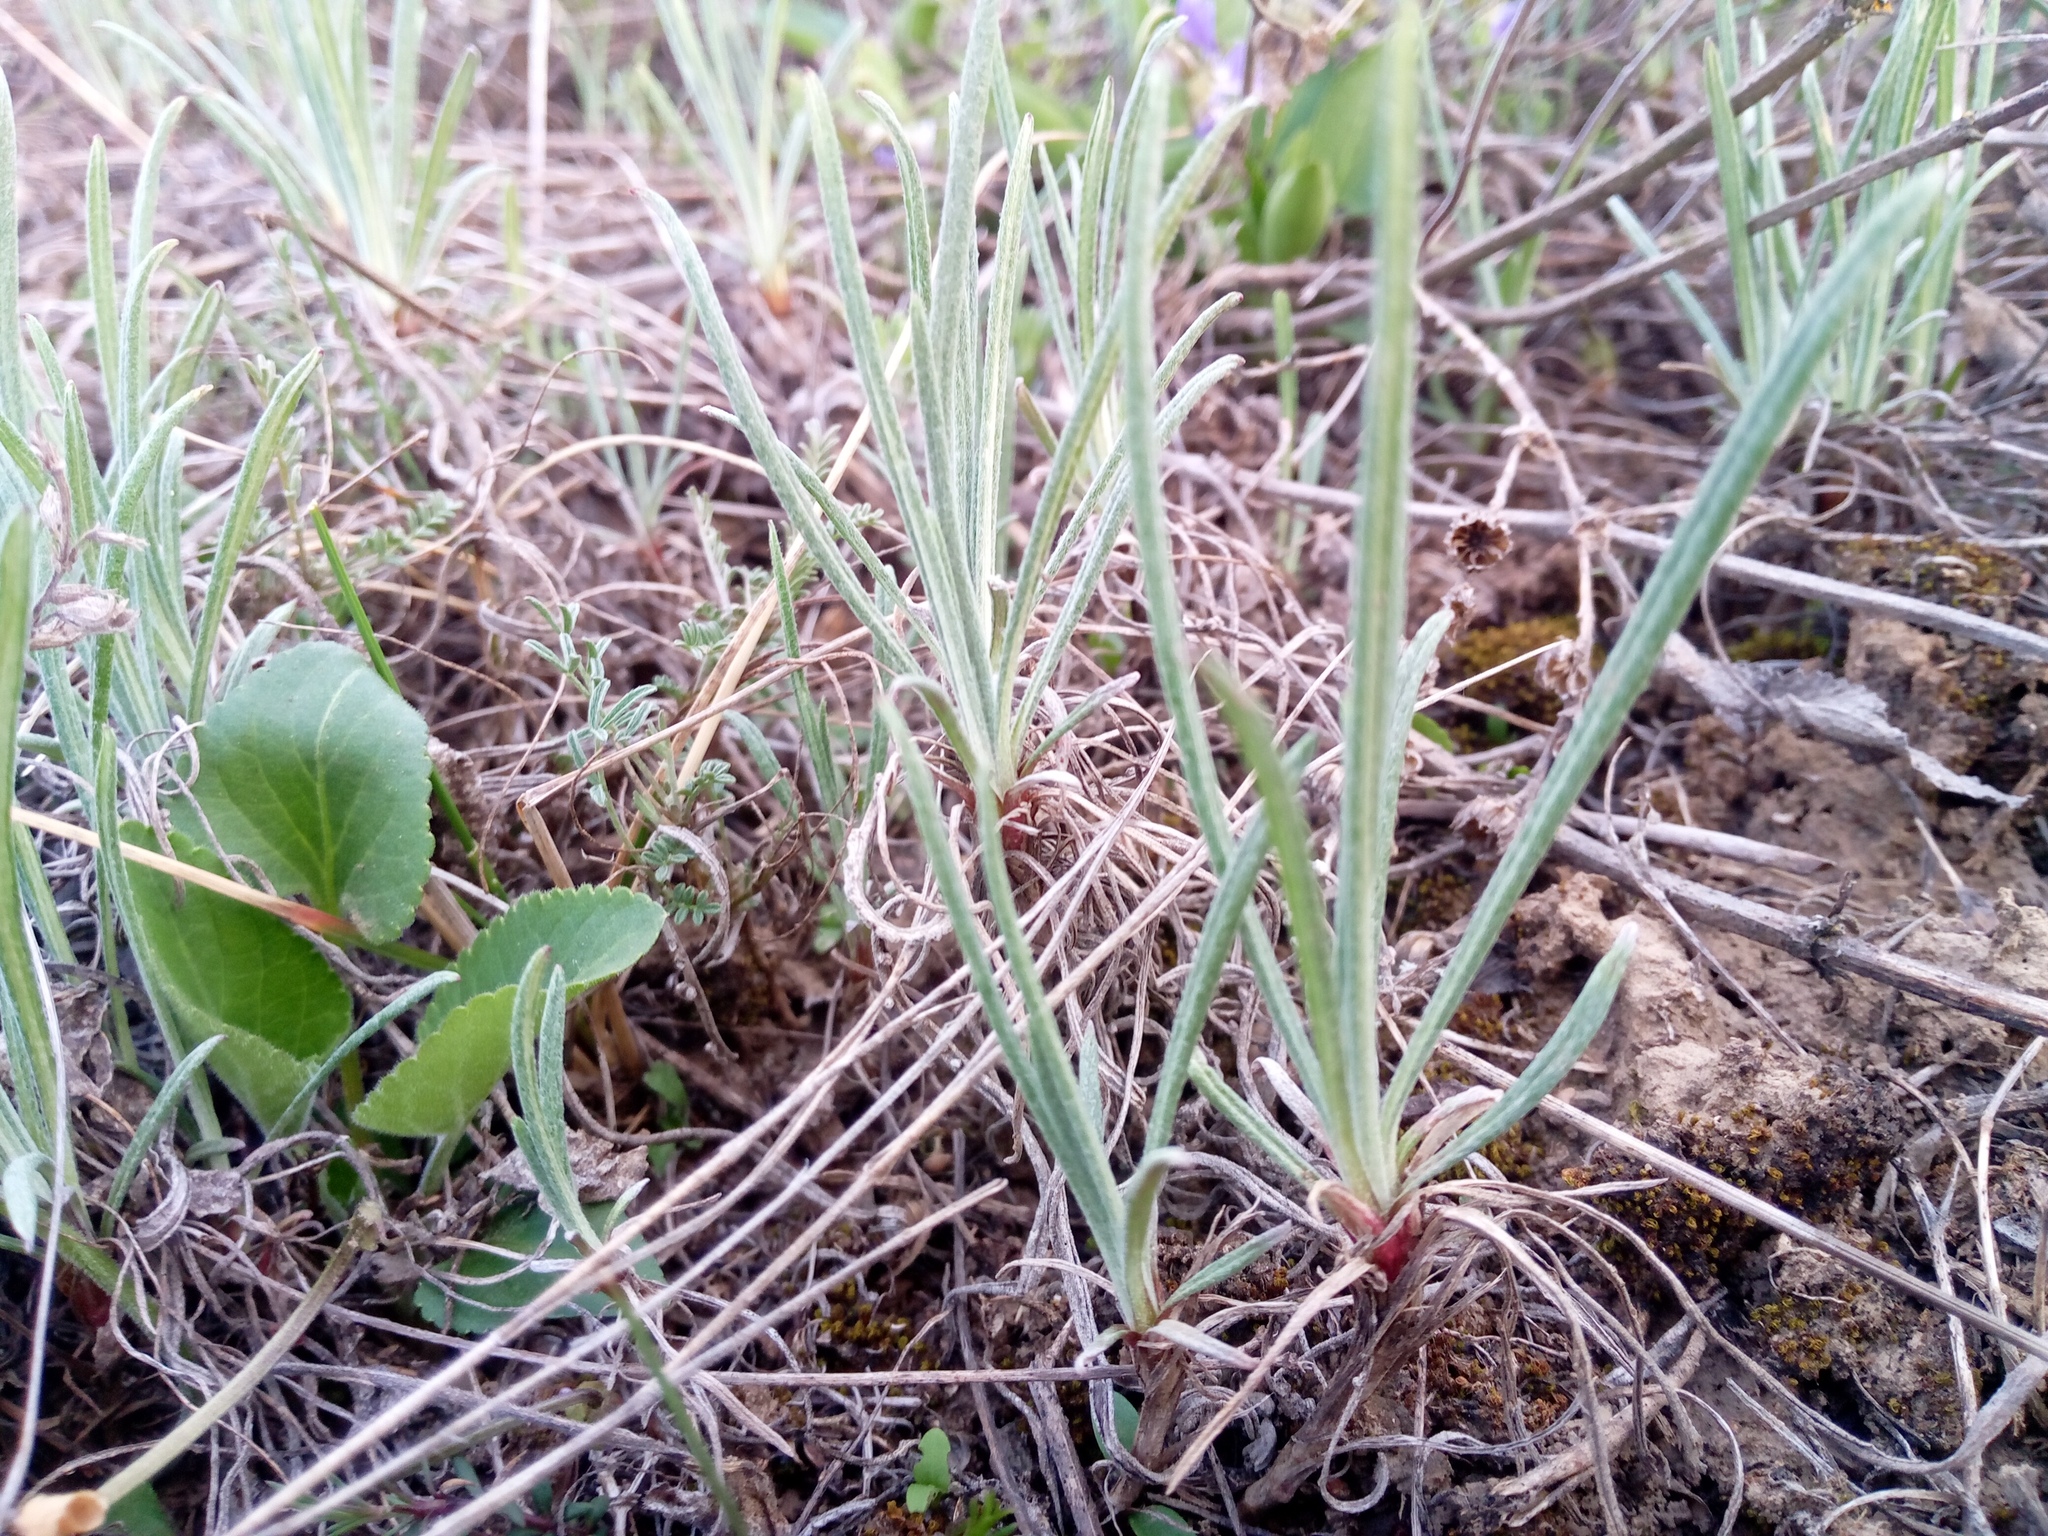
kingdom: Plantae
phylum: Tracheophyta
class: Magnoliopsida
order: Asterales
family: Asteraceae
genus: Jurinea
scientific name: Jurinea stoechadifolia
